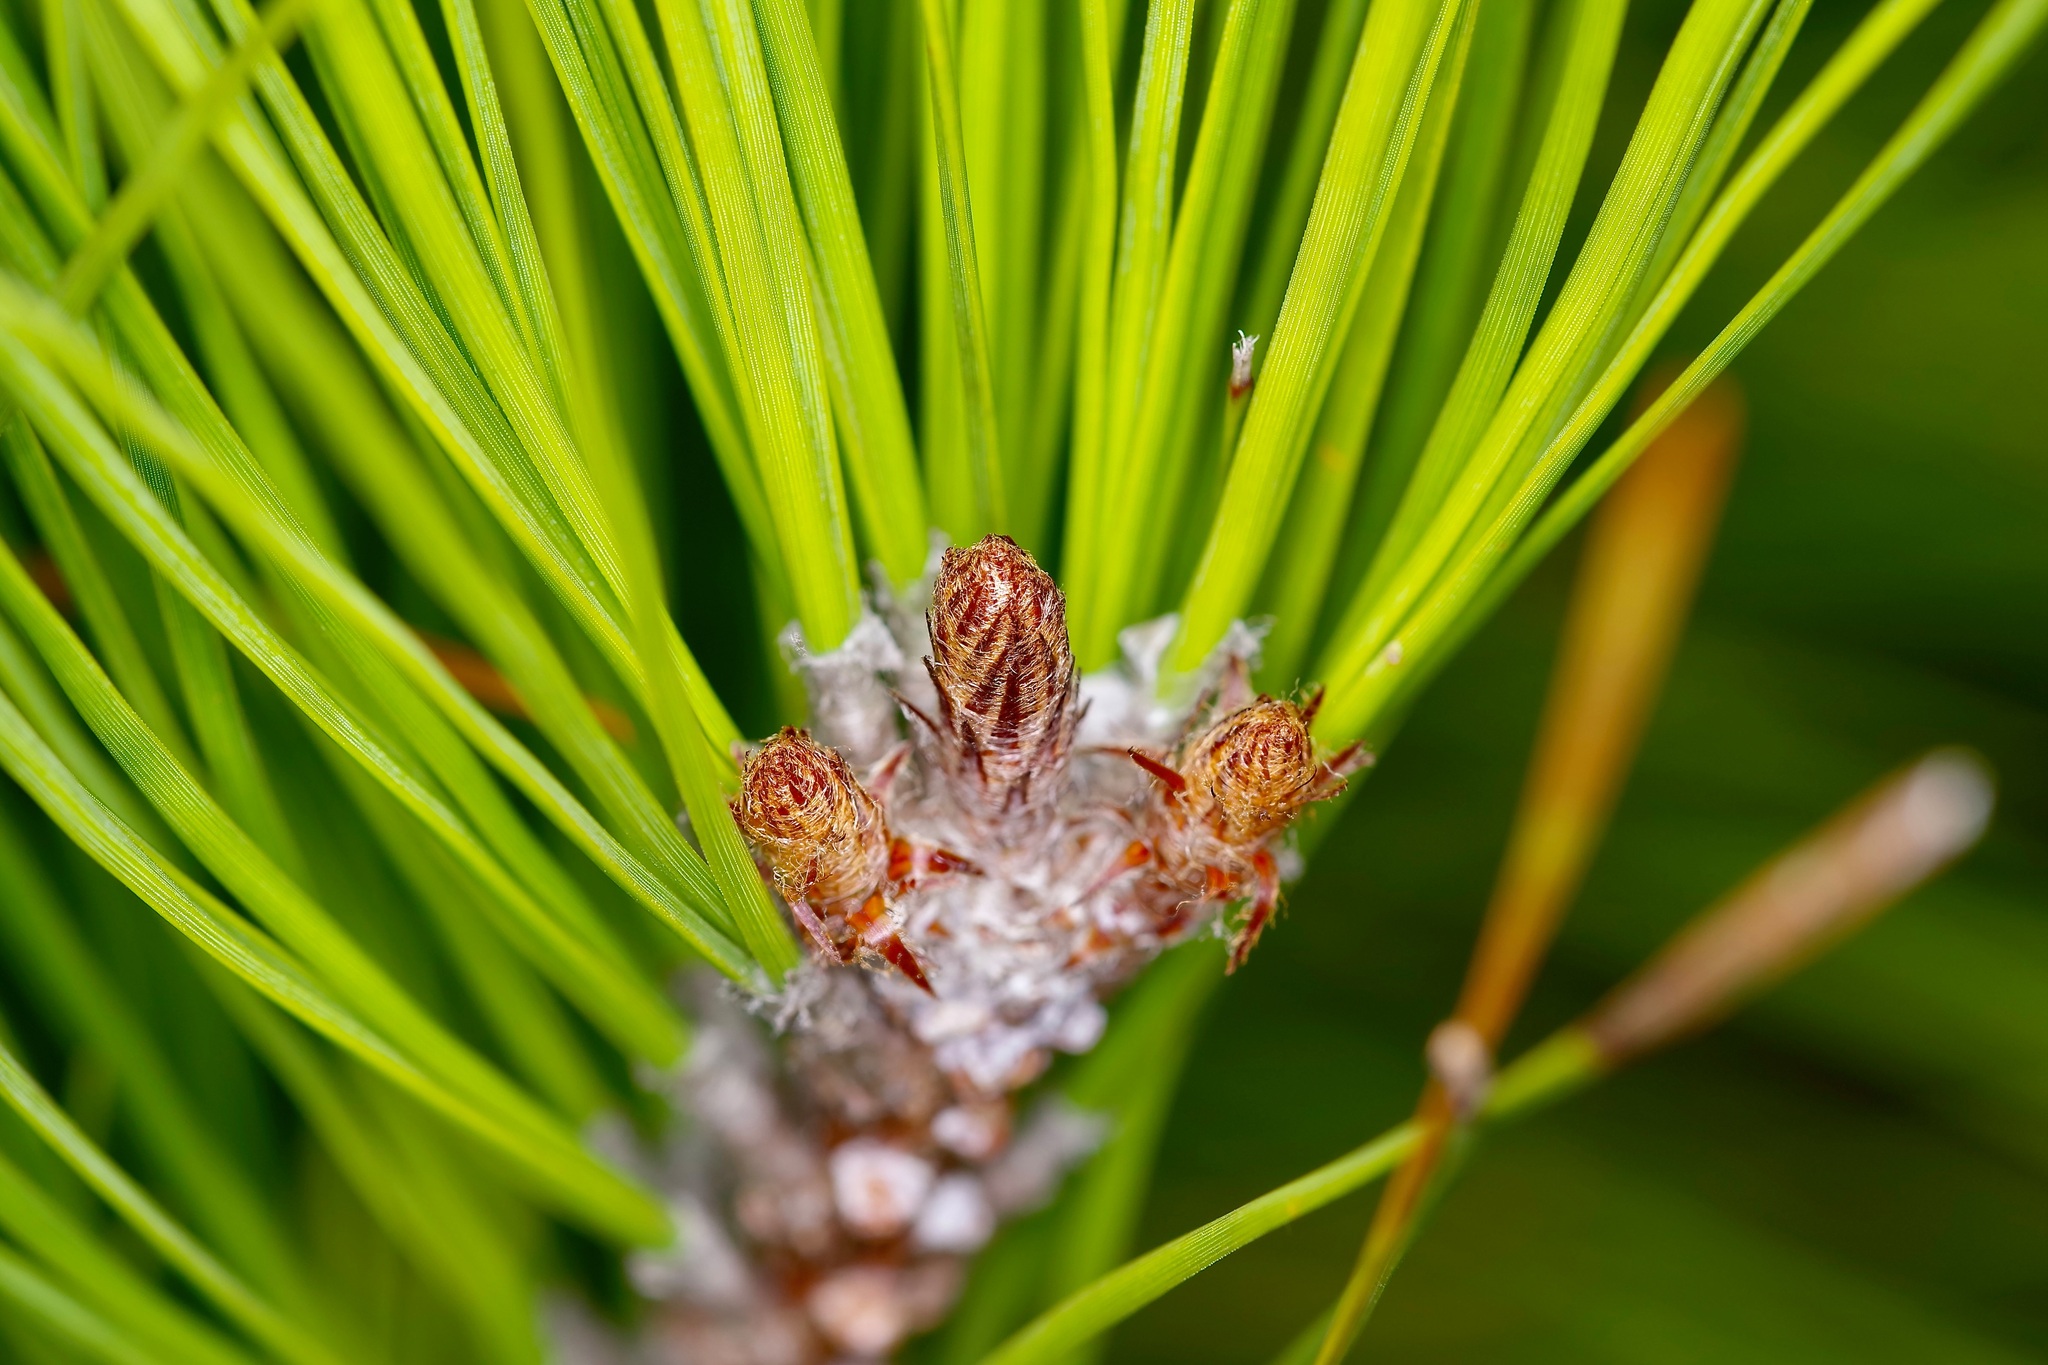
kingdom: Plantae
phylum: Tracheophyta
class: Pinopsida
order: Pinales
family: Pinaceae
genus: Pinus
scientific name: Pinus taeda
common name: Loblolly pine
